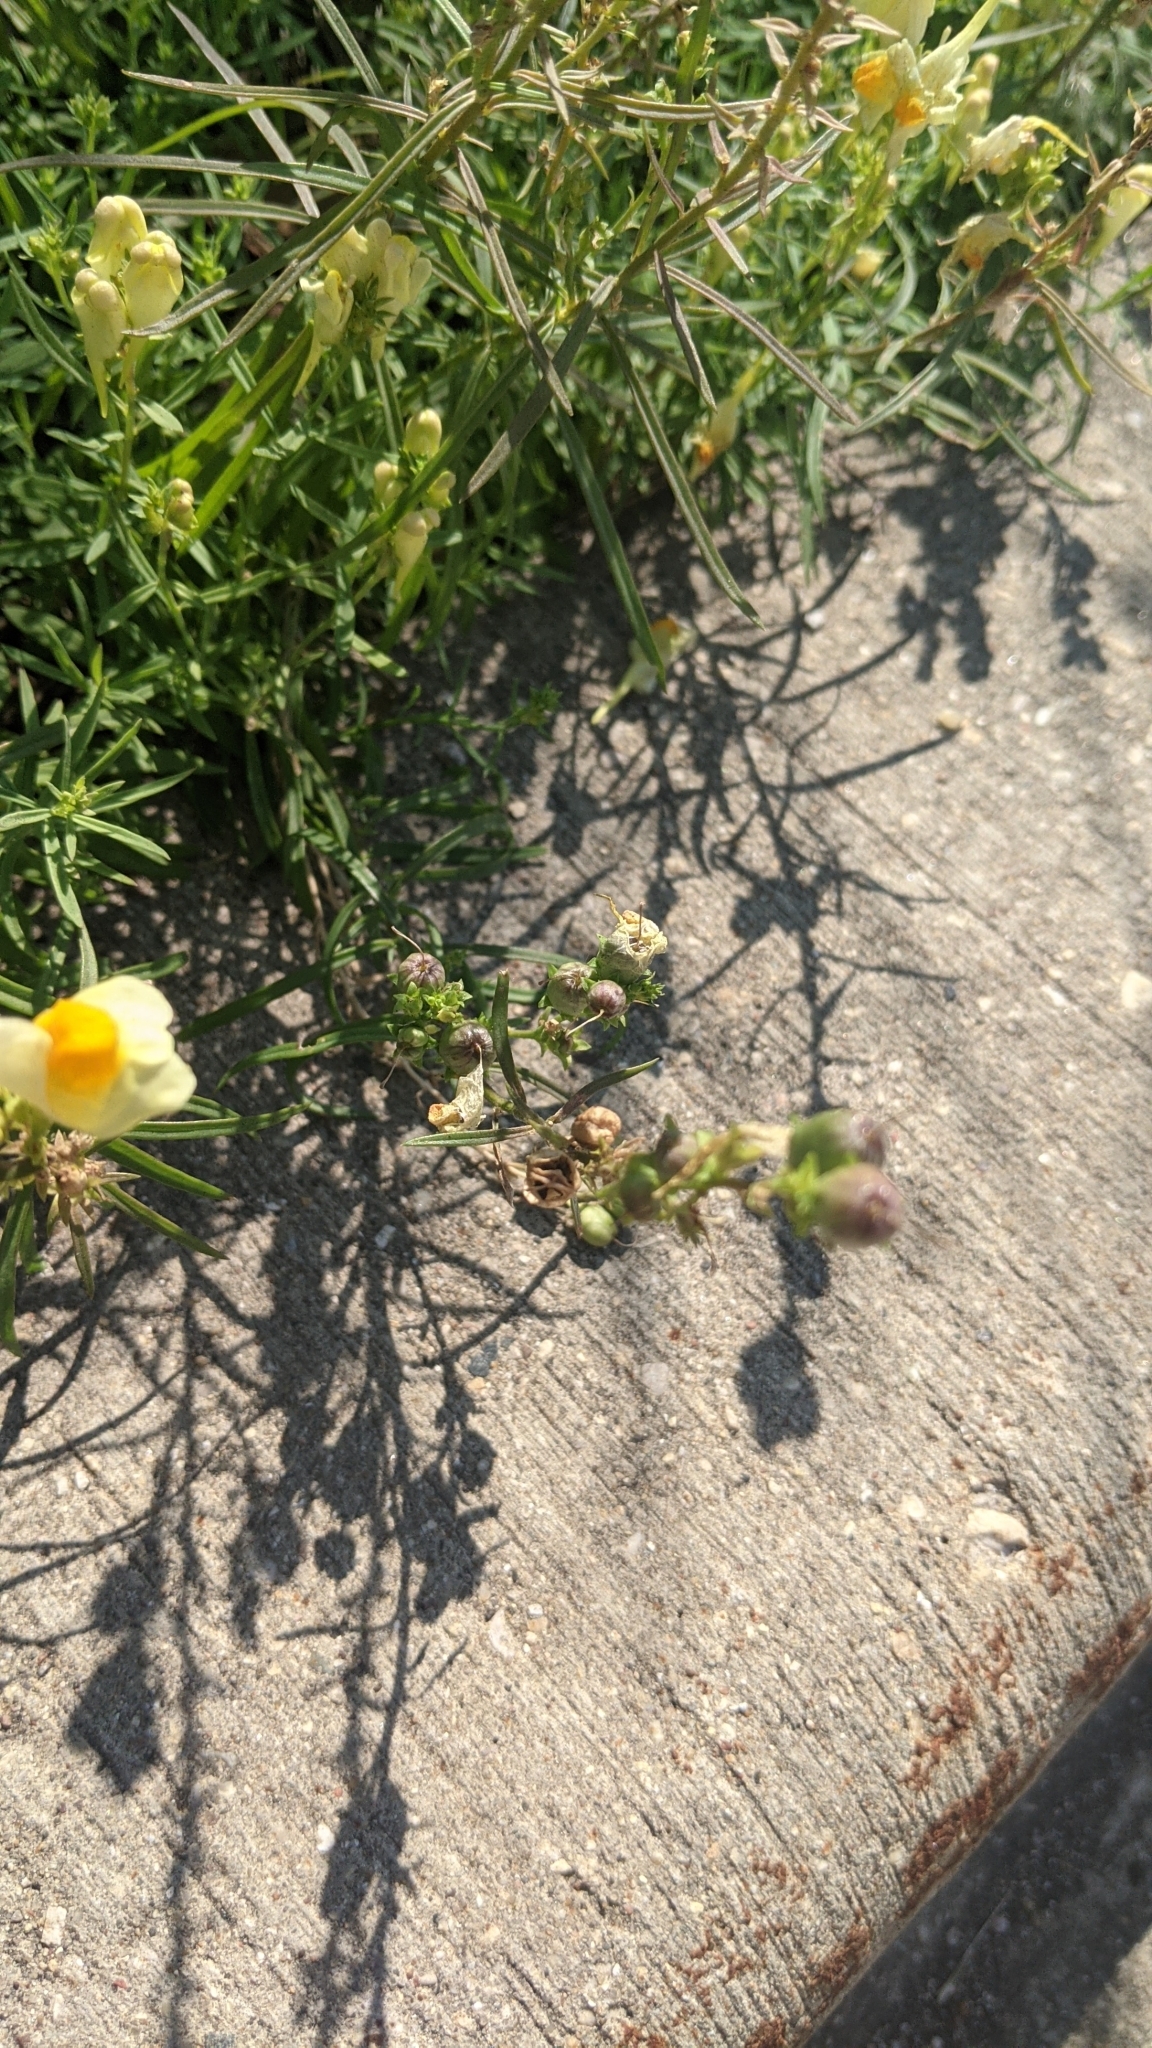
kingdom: Plantae
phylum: Tracheophyta
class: Magnoliopsida
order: Lamiales
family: Plantaginaceae
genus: Linaria
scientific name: Linaria vulgaris
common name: Butter and eggs
